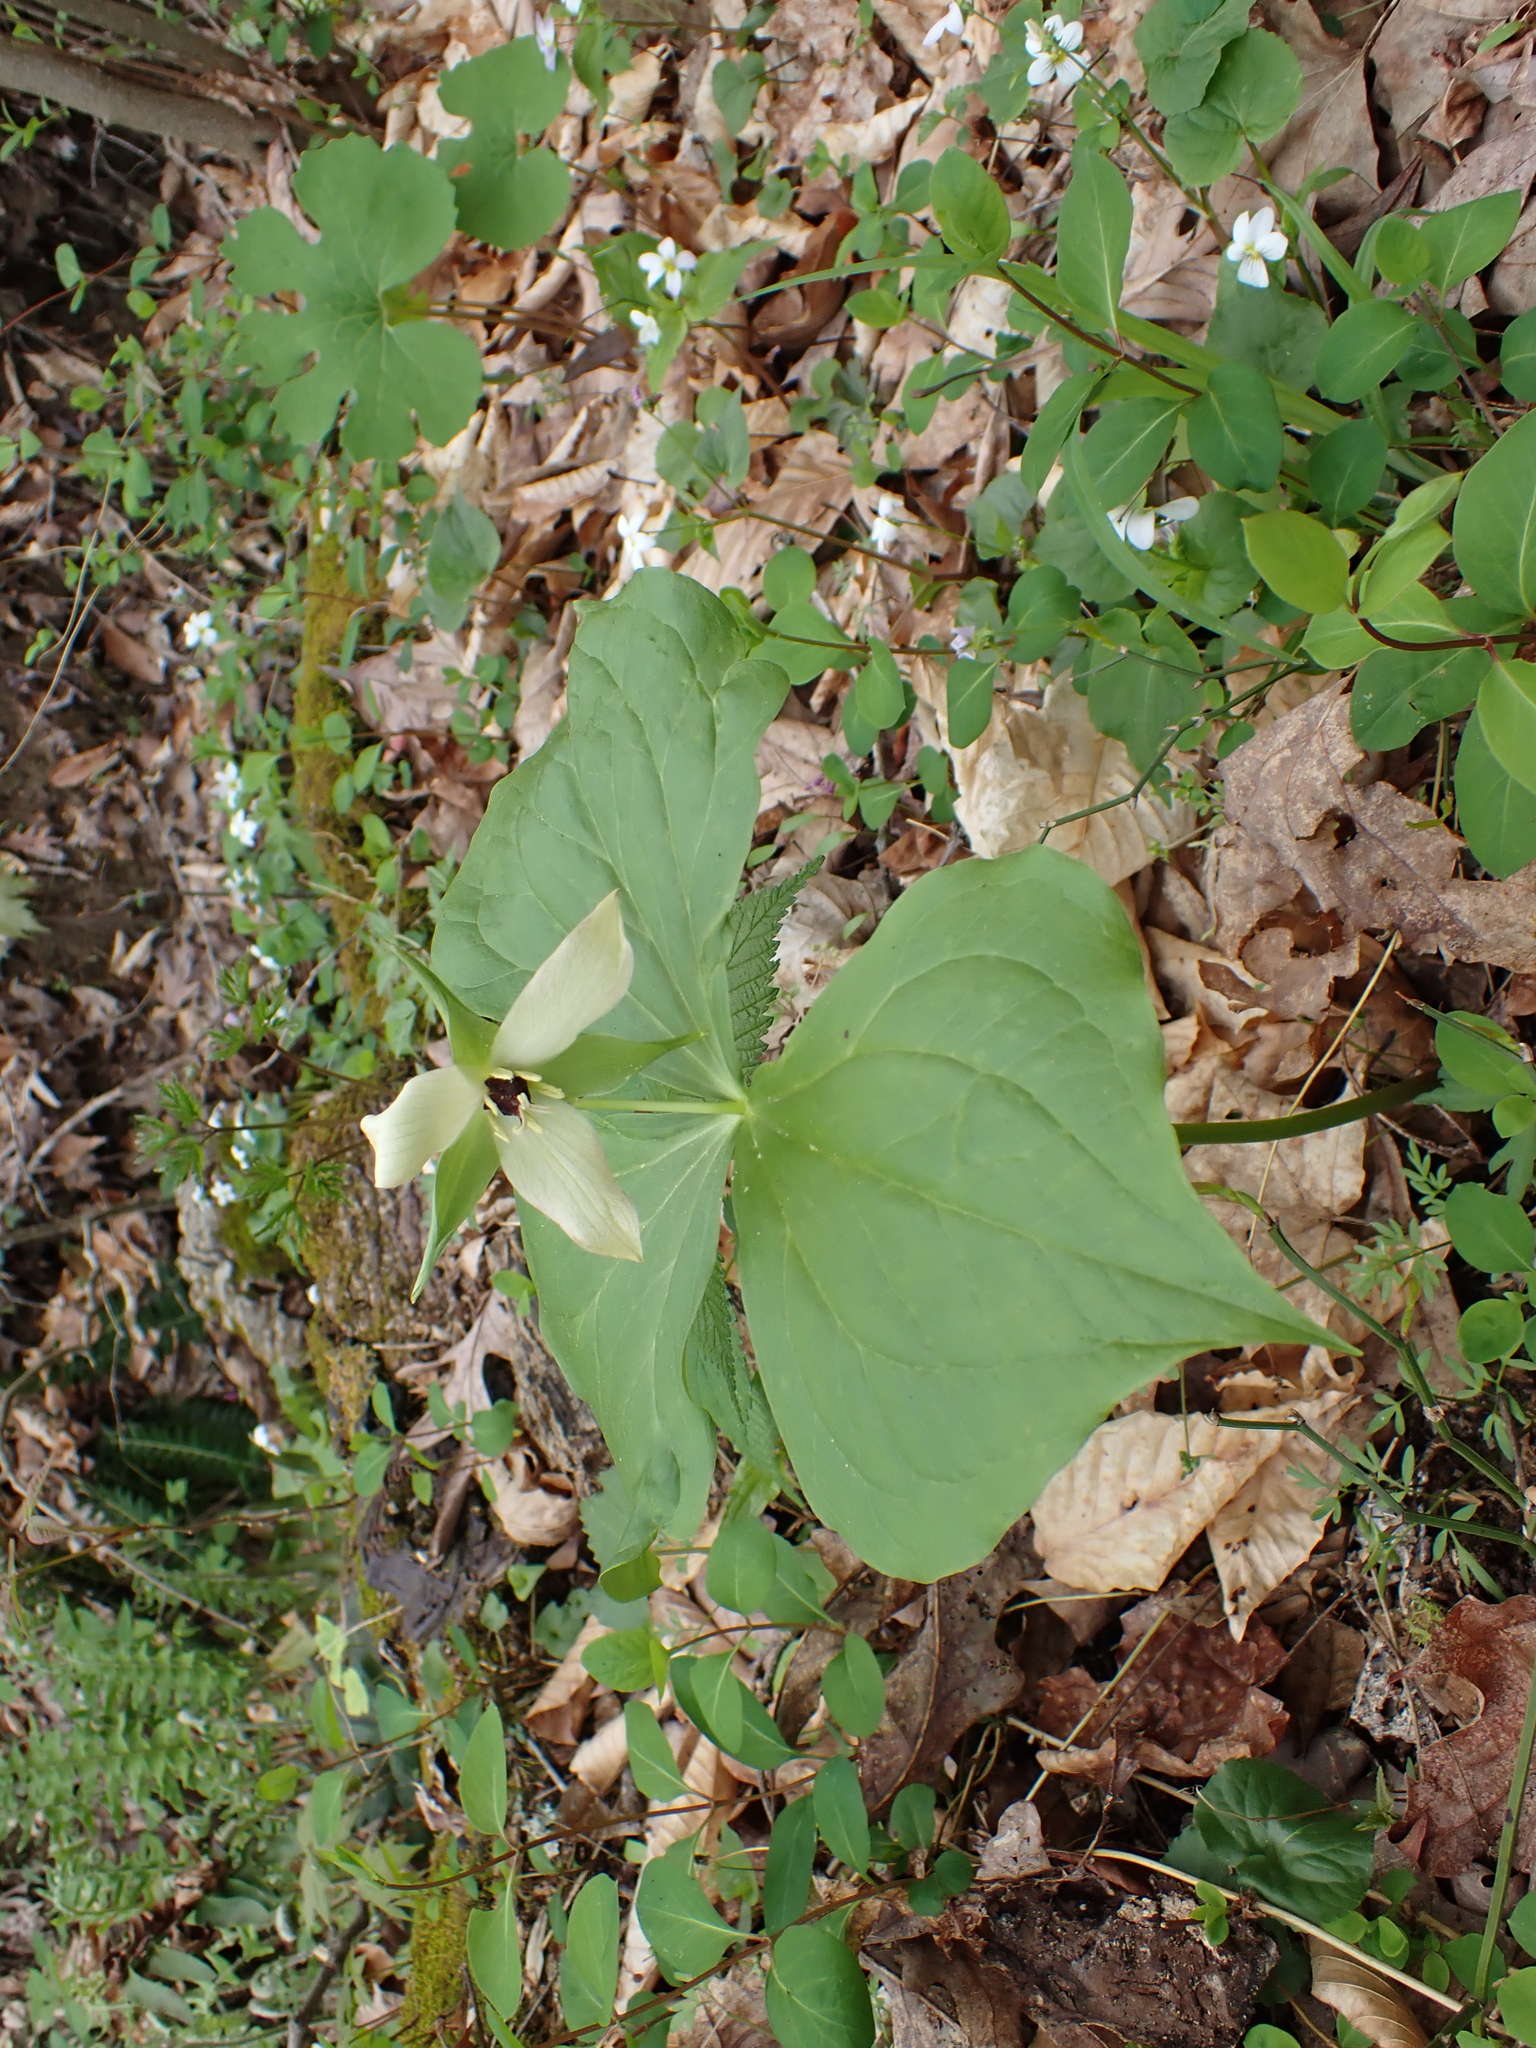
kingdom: Plantae
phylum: Tracheophyta
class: Liliopsida
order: Liliales
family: Melanthiaceae
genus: Trillium
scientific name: Trillium erectum
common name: Purple trillium
